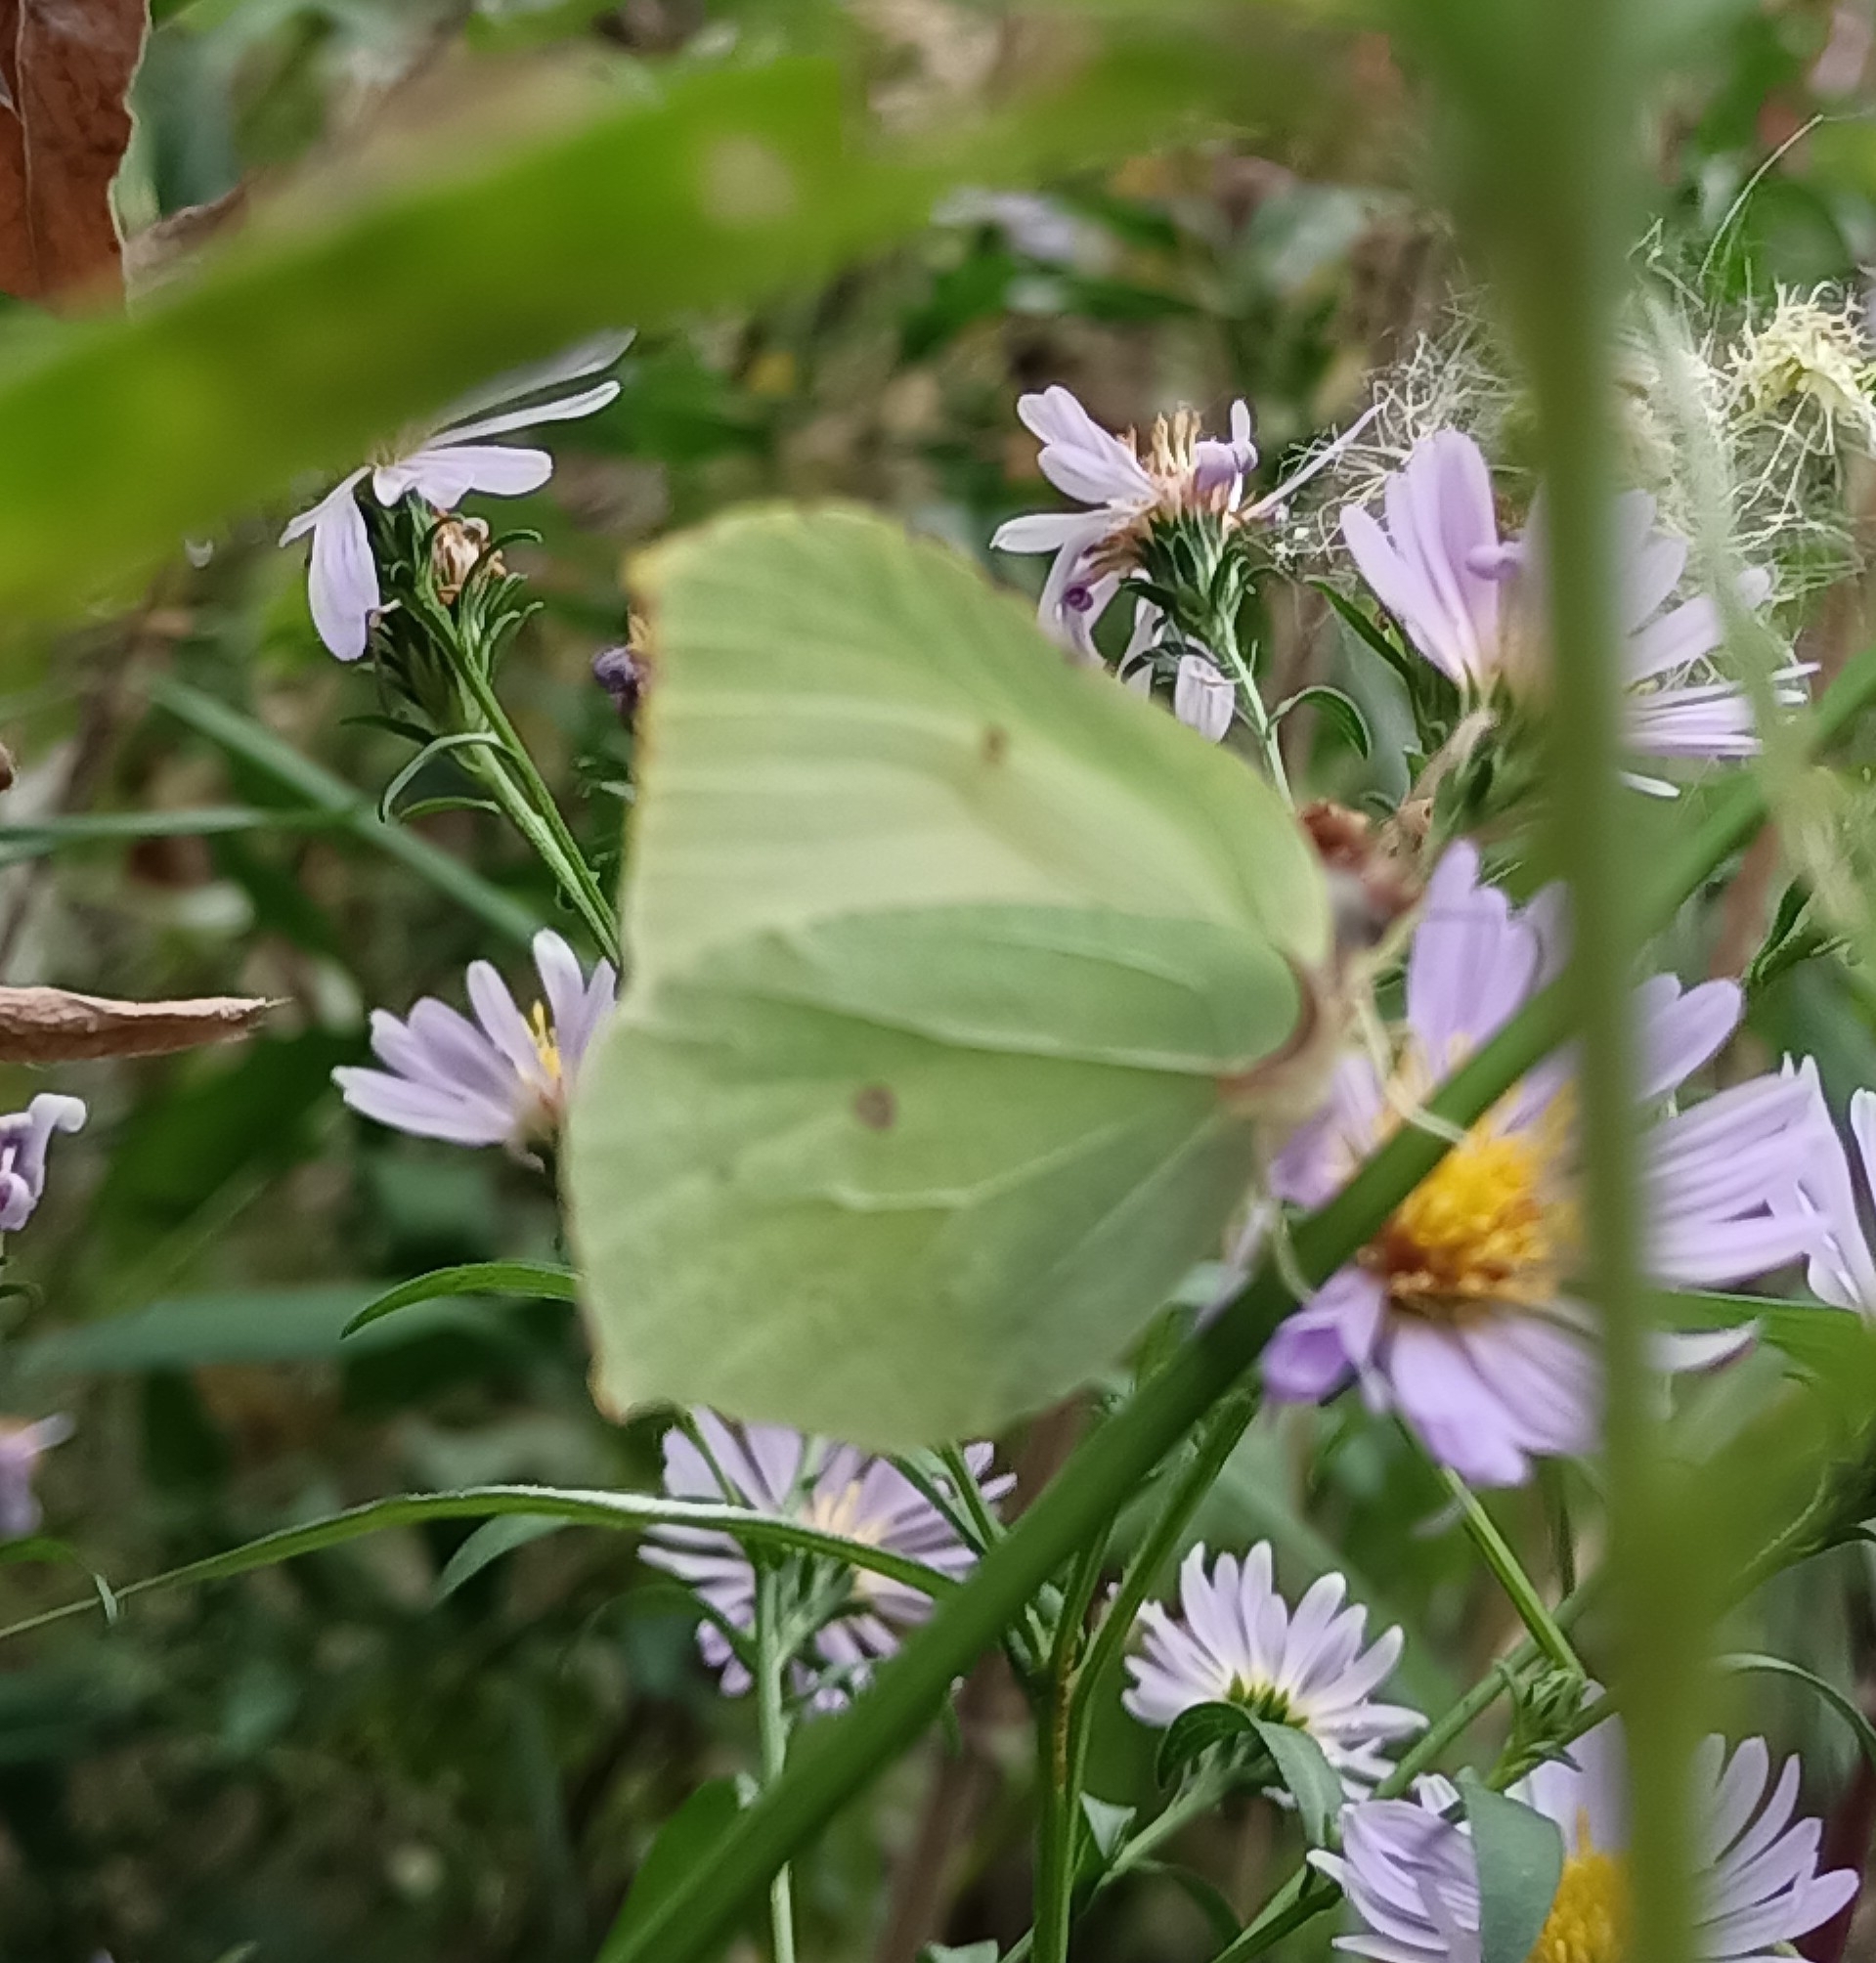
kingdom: Animalia
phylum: Arthropoda
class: Insecta
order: Lepidoptera
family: Pieridae
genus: Gonepteryx
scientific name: Gonepteryx rhamni
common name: Brimstone
